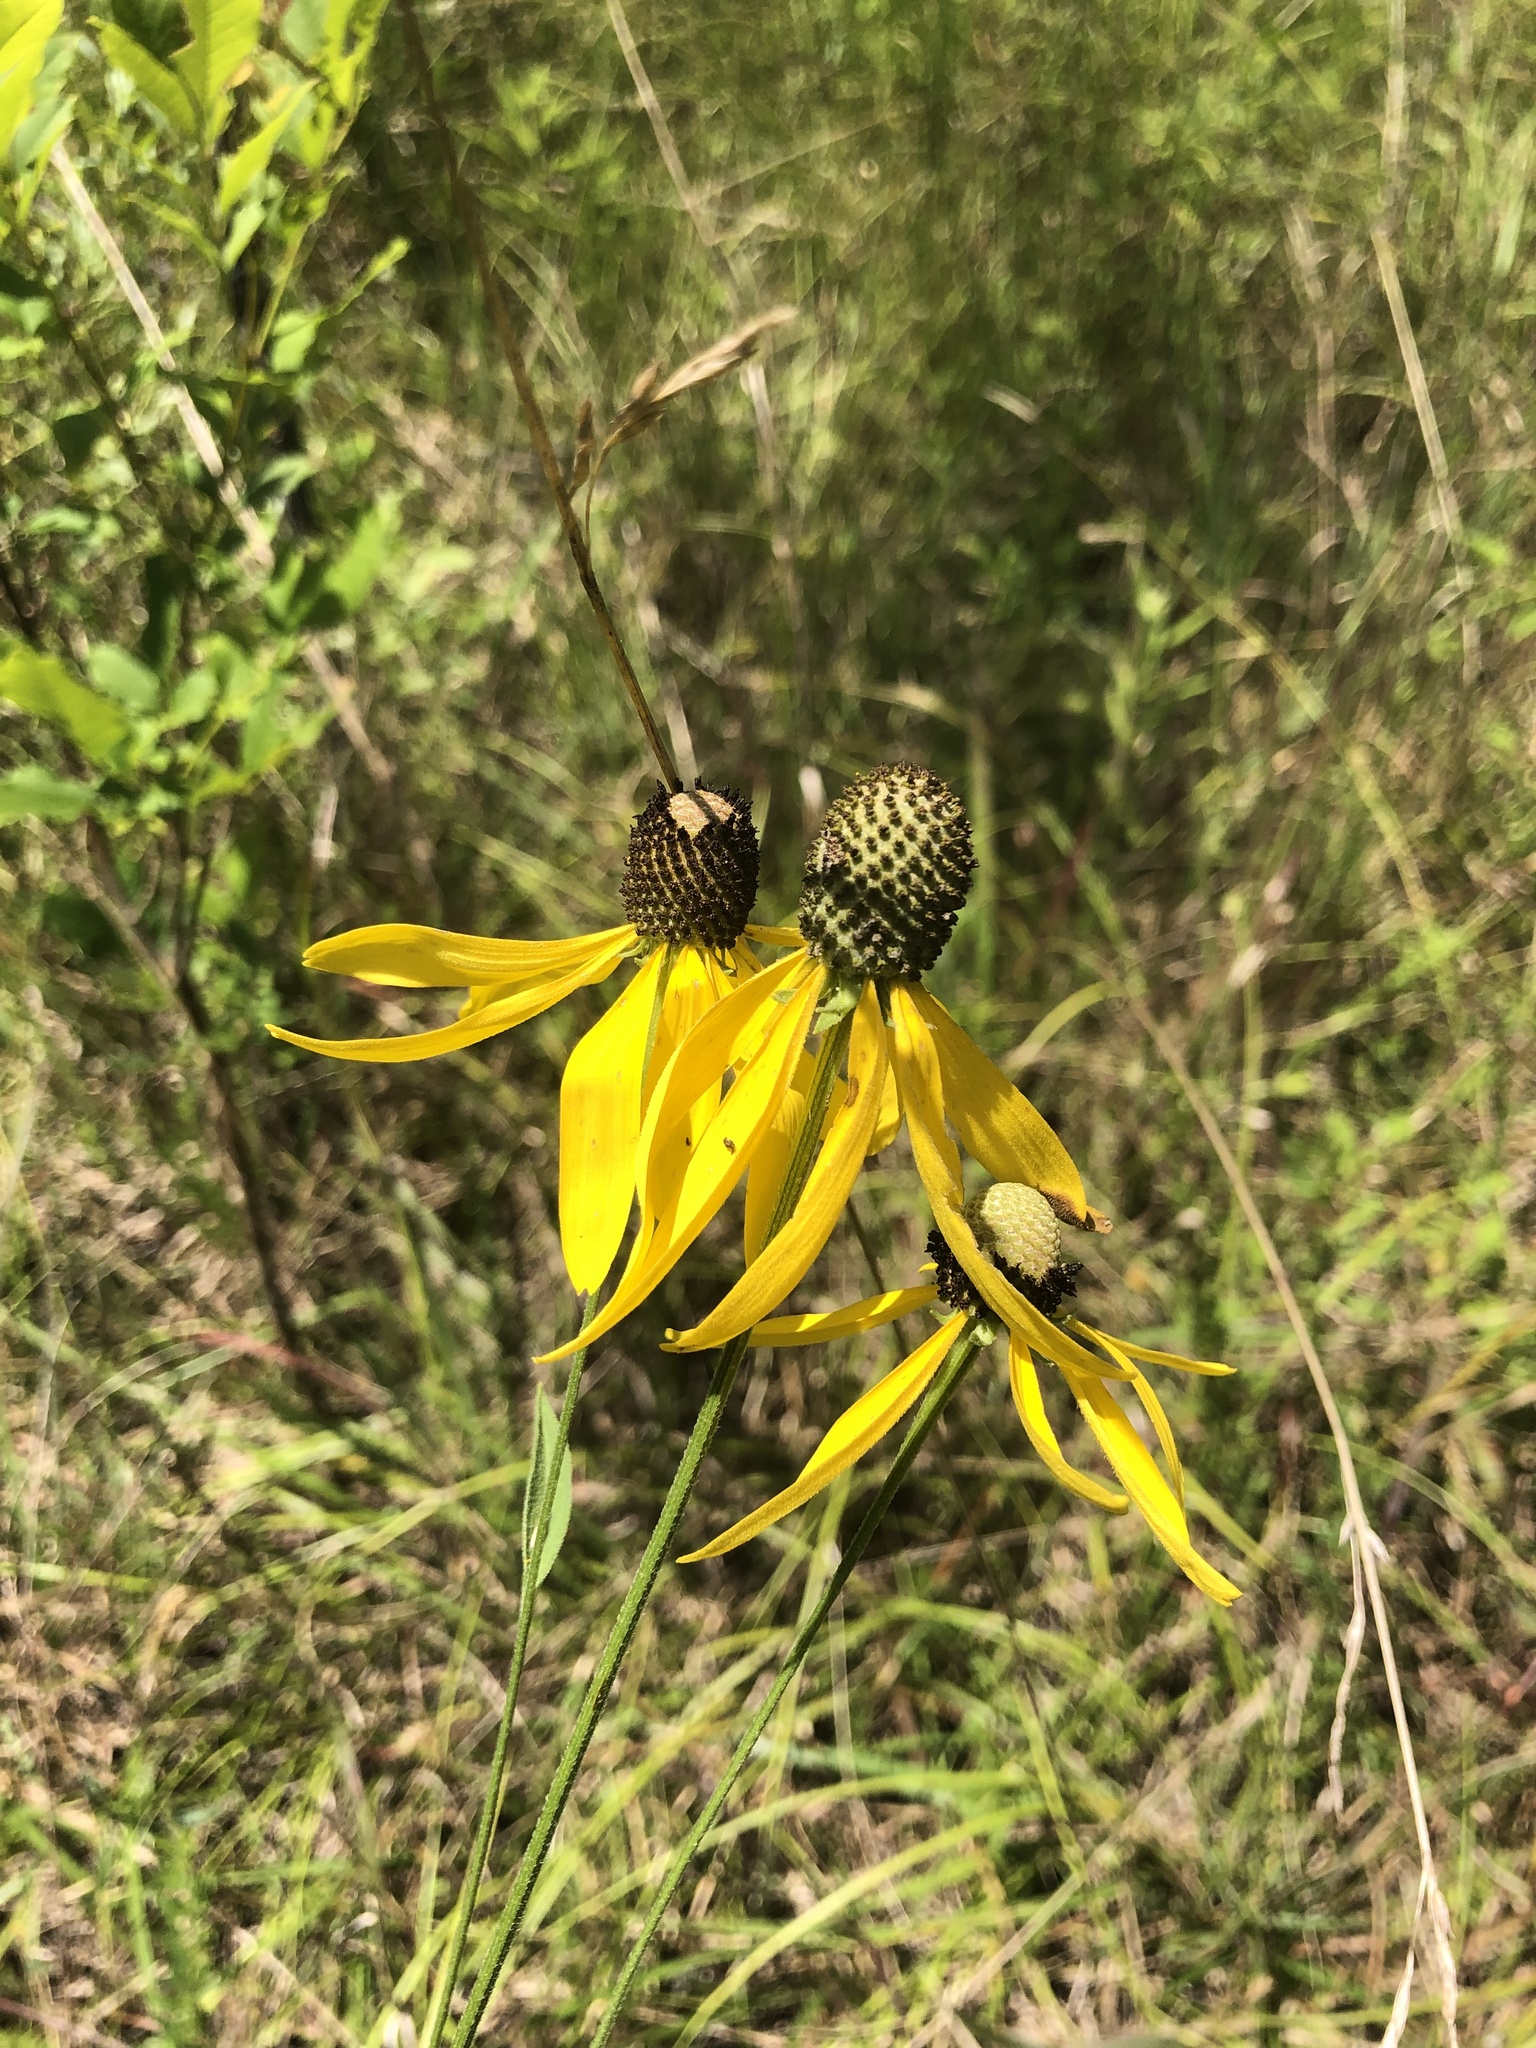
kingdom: Plantae
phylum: Tracheophyta
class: Magnoliopsida
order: Asterales
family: Asteraceae
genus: Ratibida
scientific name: Ratibida pinnata
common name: Drooping prairie-coneflower
